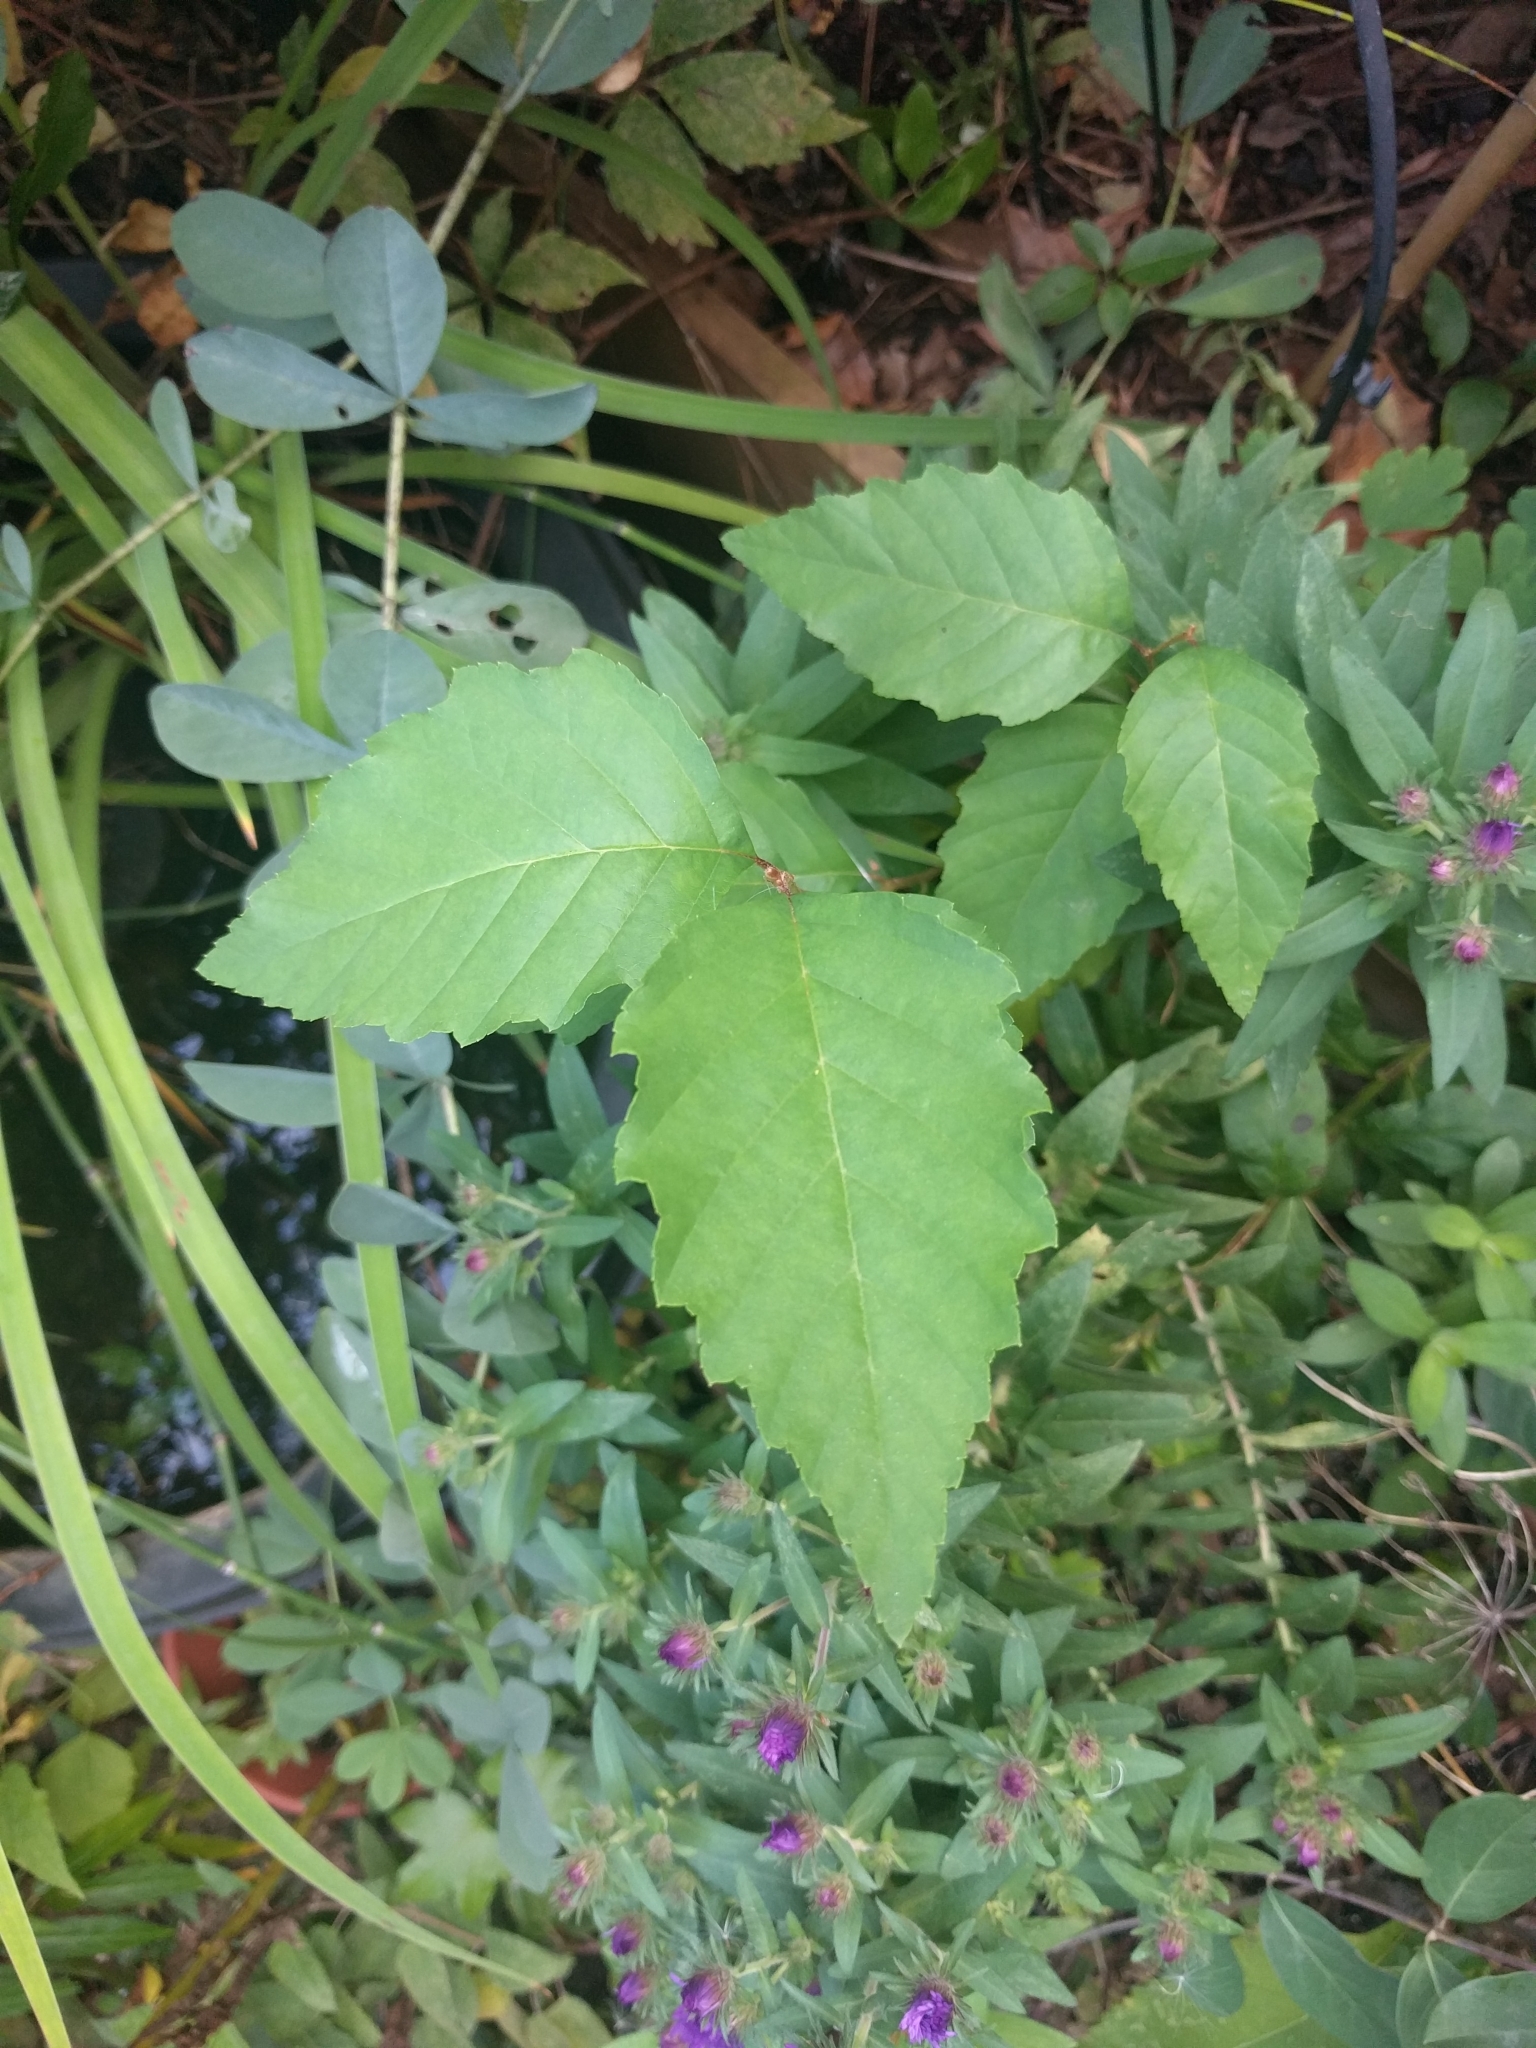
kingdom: Plantae
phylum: Tracheophyta
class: Magnoliopsida
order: Fagales
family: Betulaceae
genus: Betula
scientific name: Betula nigra
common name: Black birch
